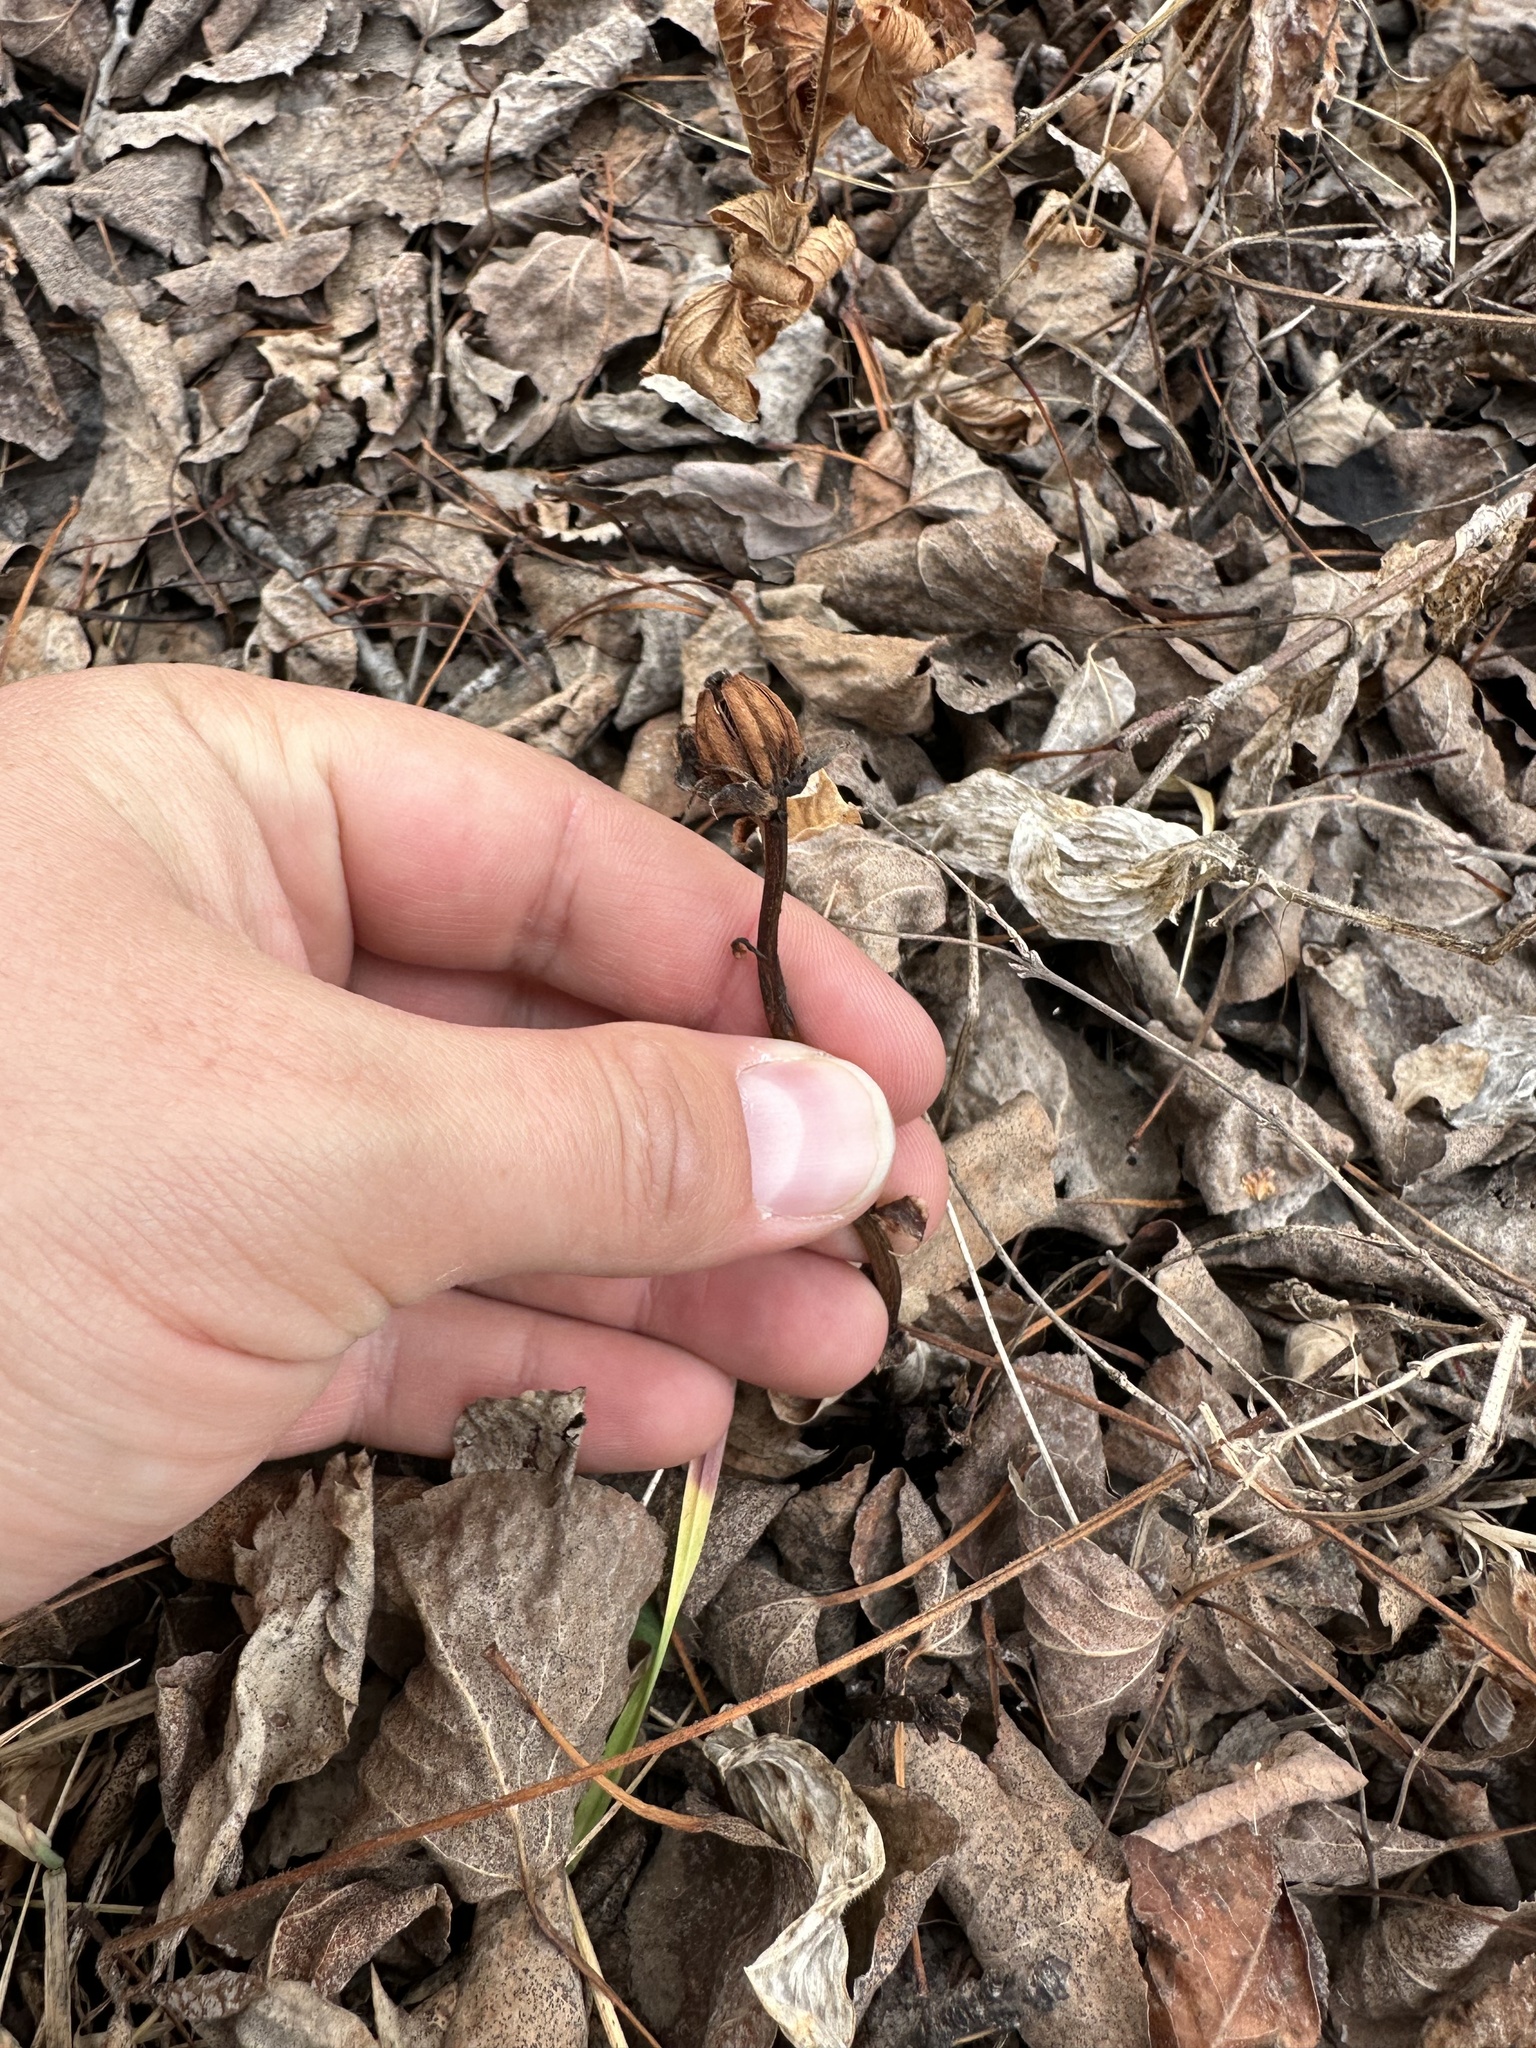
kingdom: Plantae
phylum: Tracheophyta
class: Magnoliopsida
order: Ericales
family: Ericaceae
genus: Monotropa
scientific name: Monotropa uniflora
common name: Convulsion root
